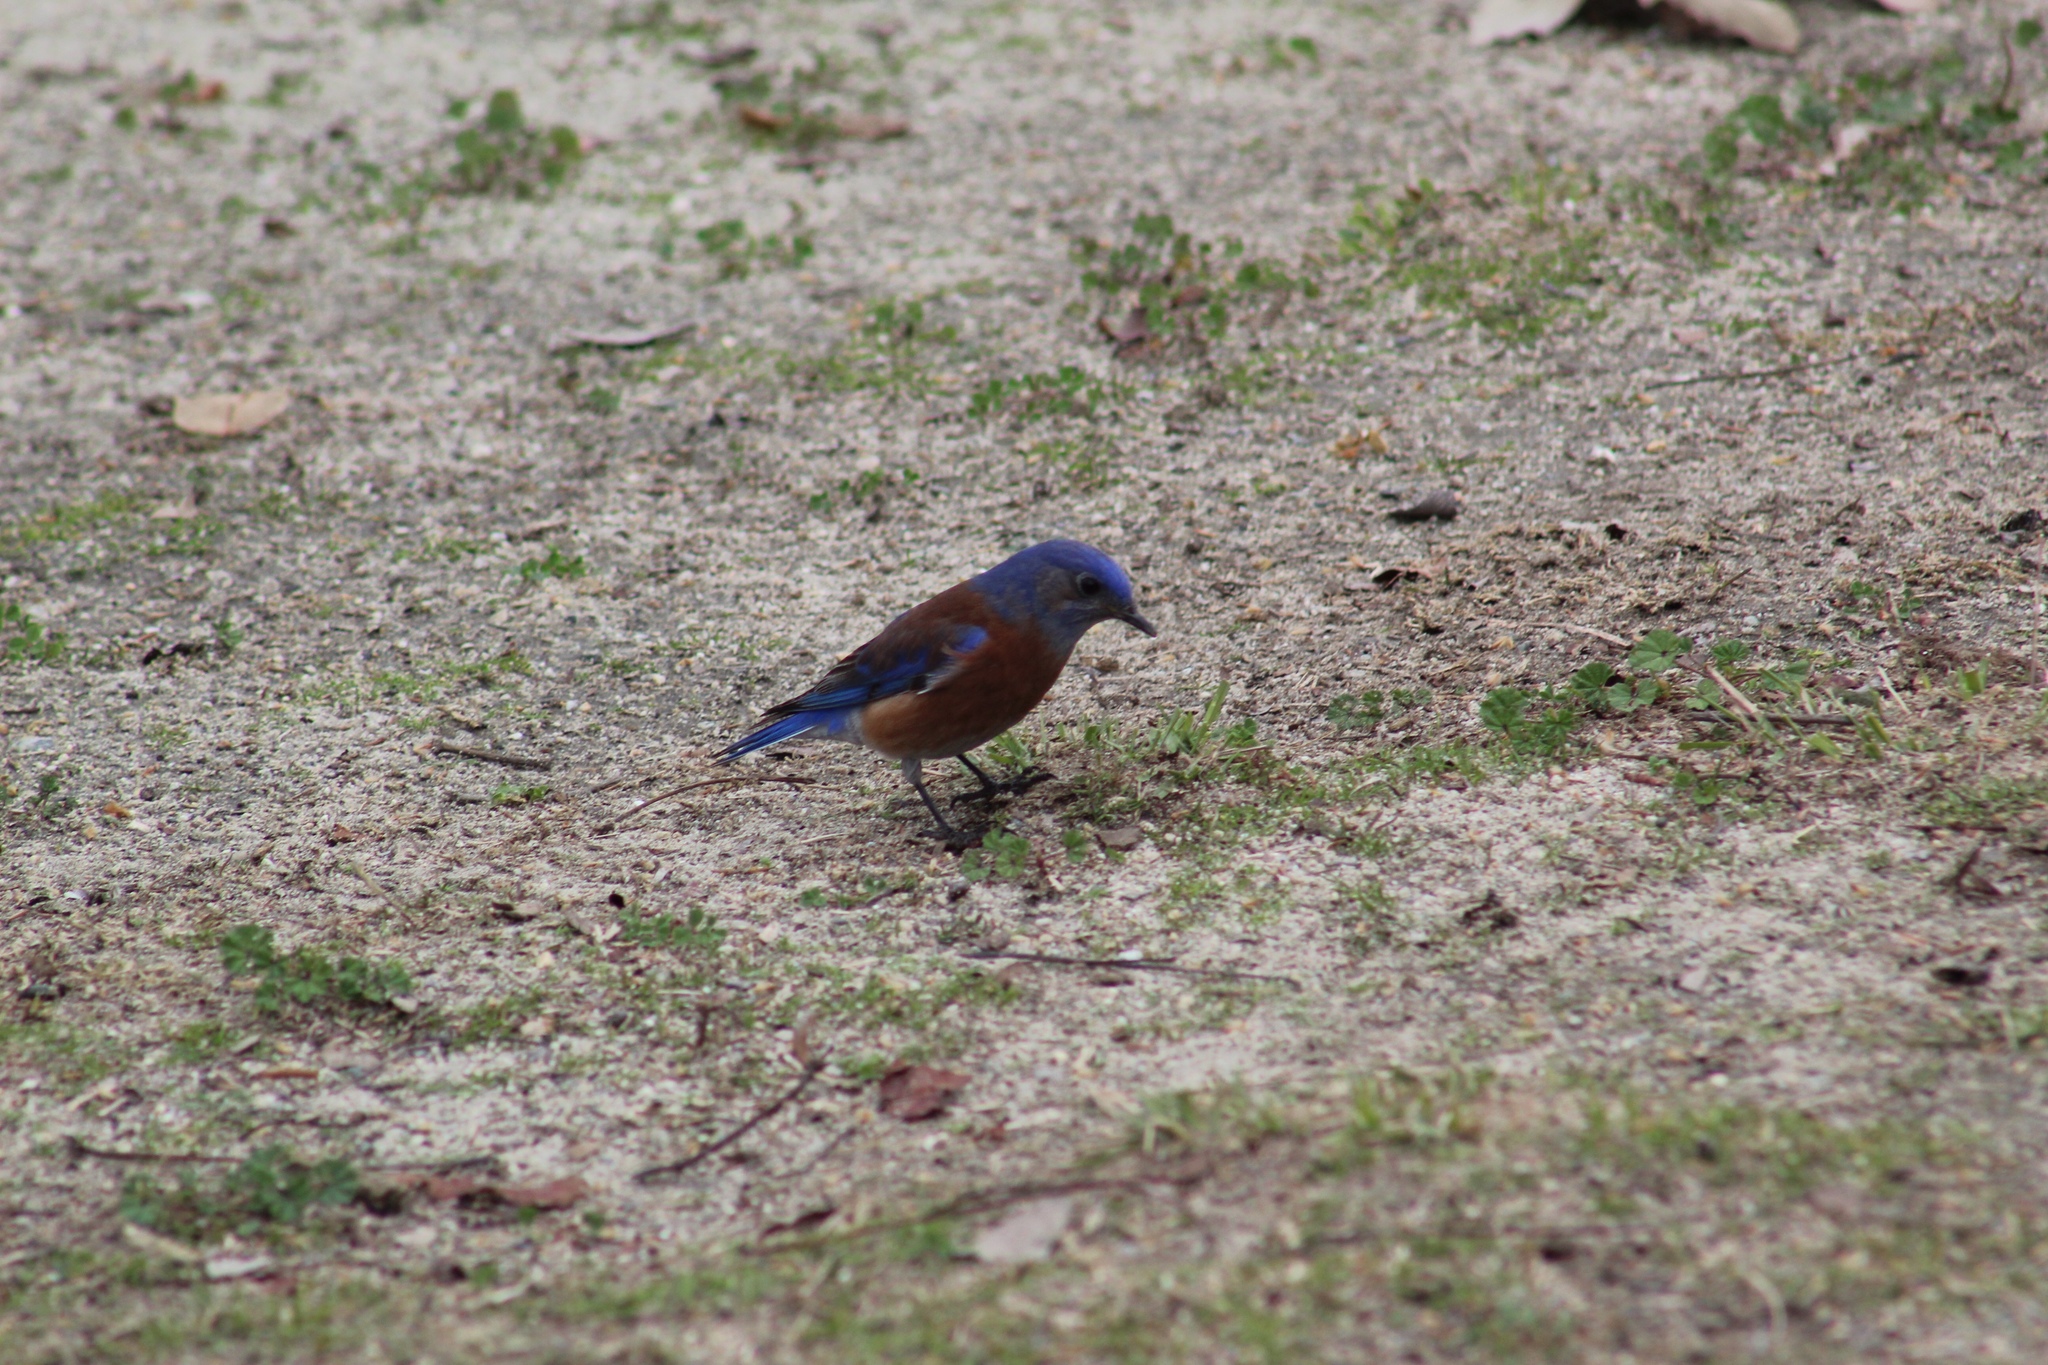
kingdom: Animalia
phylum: Chordata
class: Aves
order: Passeriformes
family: Turdidae
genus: Sialia
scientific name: Sialia mexicana
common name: Western bluebird
